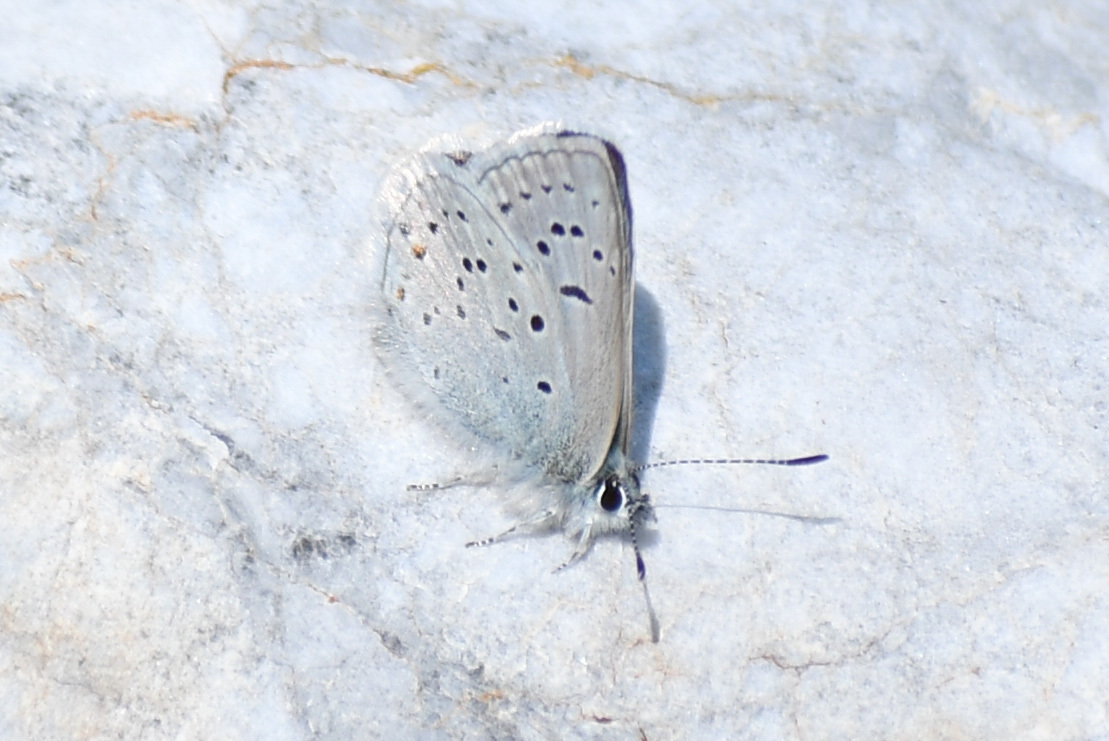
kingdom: Animalia
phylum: Arthropoda
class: Insecta
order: Lepidoptera
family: Lycaenidae
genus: Icaricia
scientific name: Icaricia saepiolus
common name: Greenish blue
